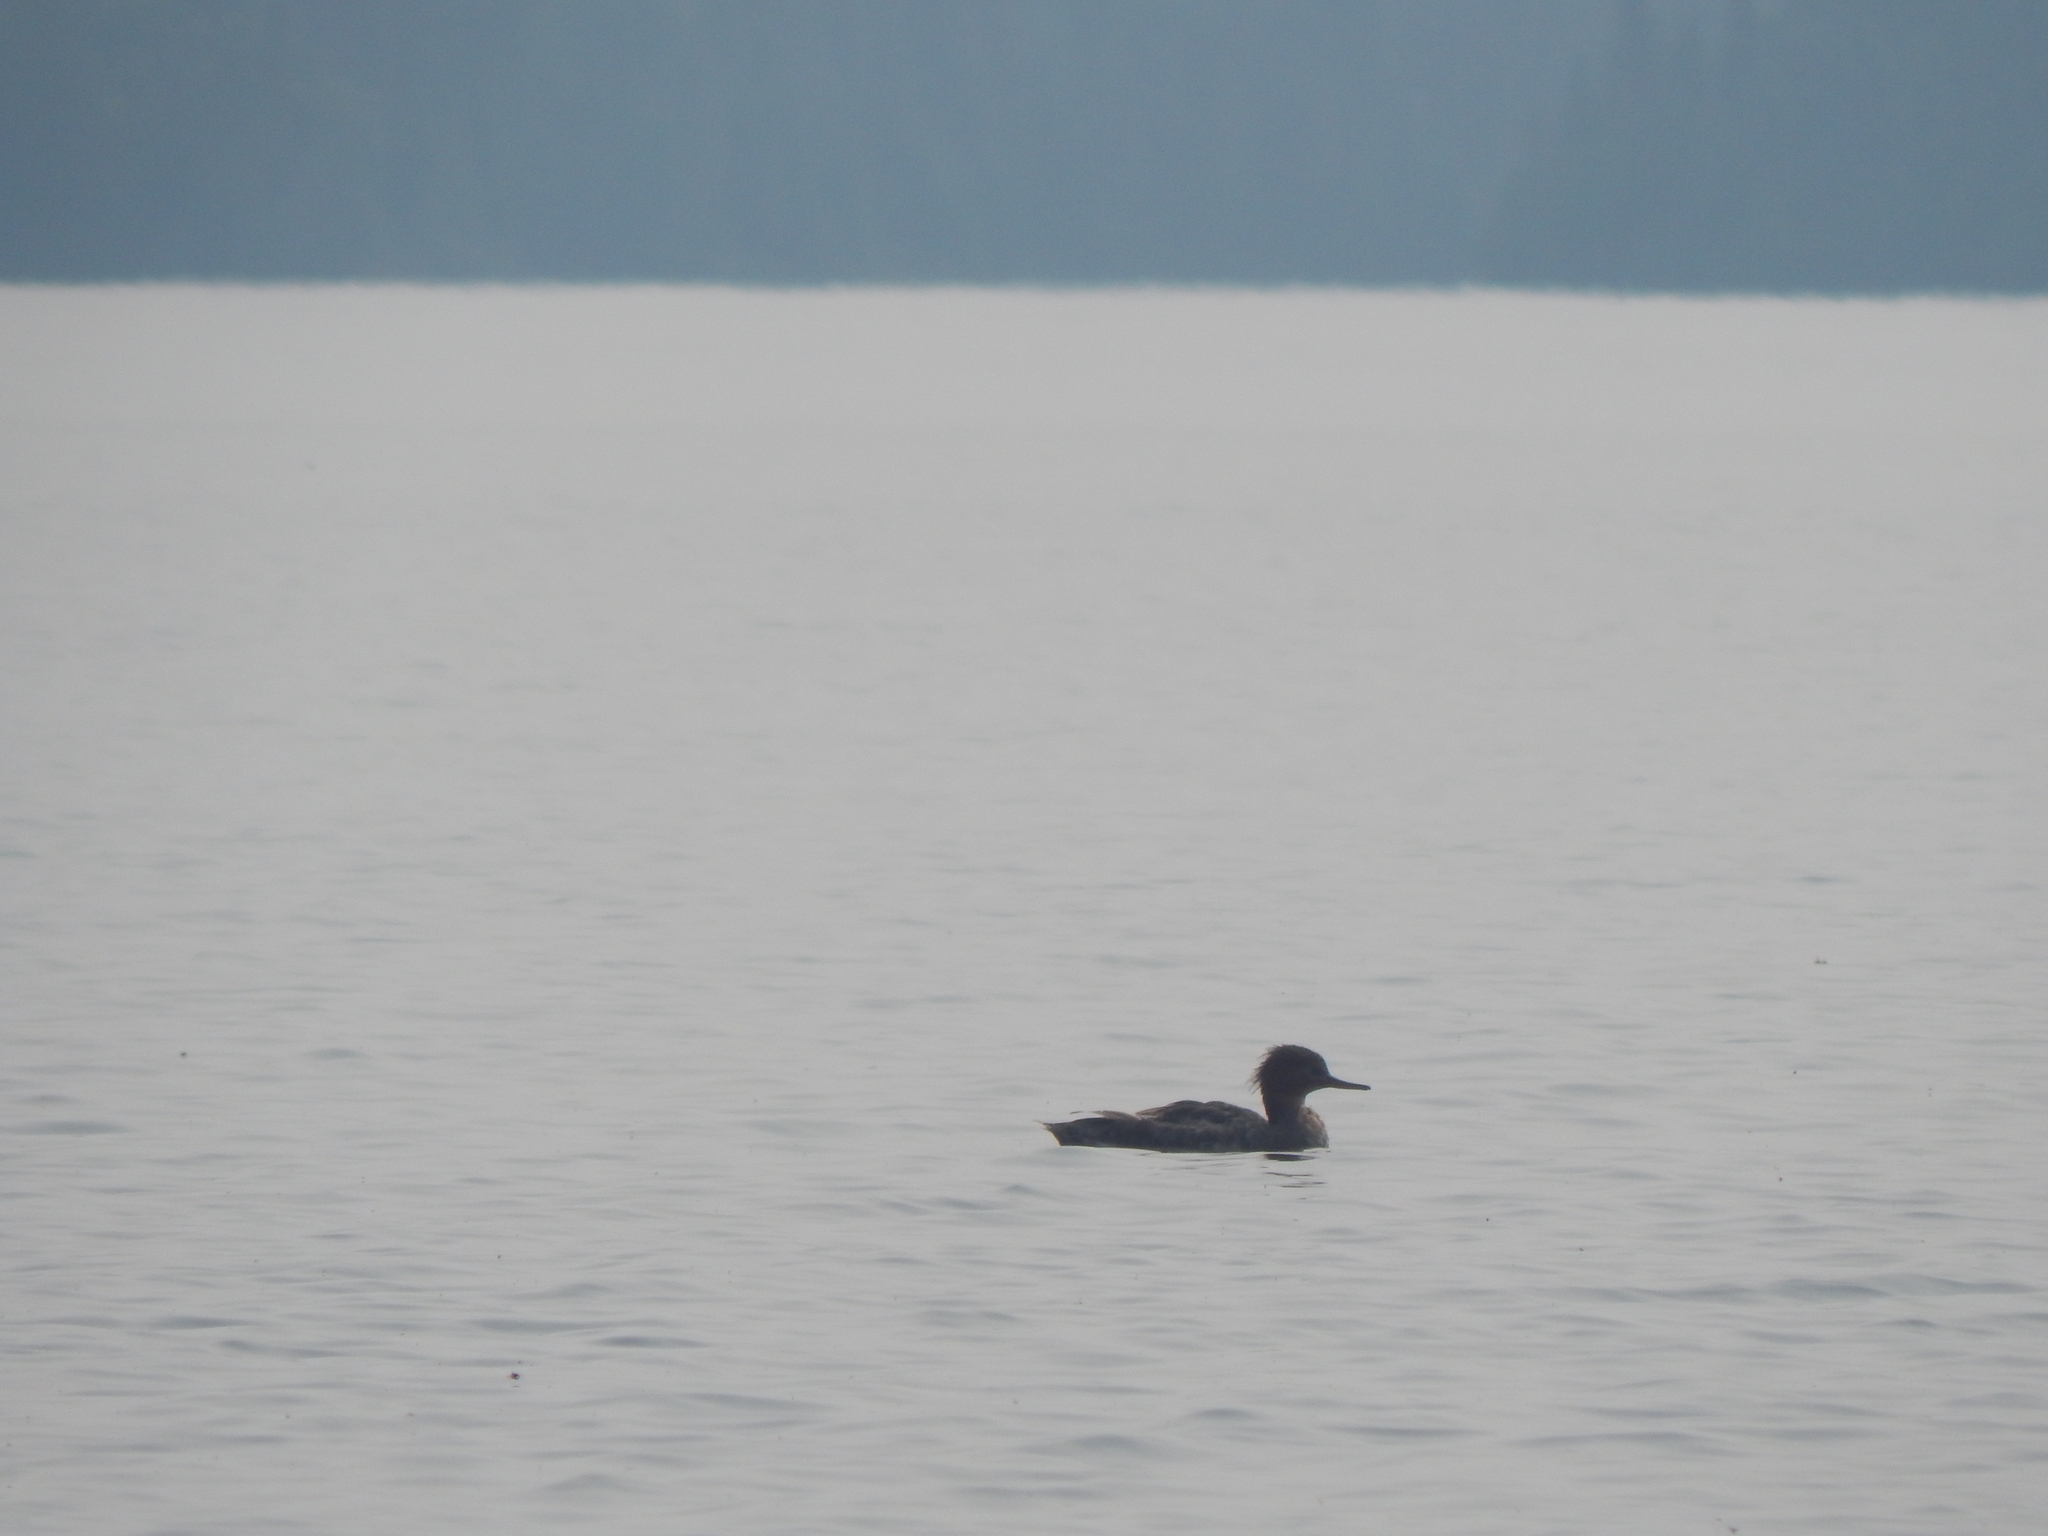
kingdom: Animalia
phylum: Chordata
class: Aves
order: Anseriformes
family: Anatidae
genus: Mergus
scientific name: Mergus serrator
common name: Red-breasted merganser
